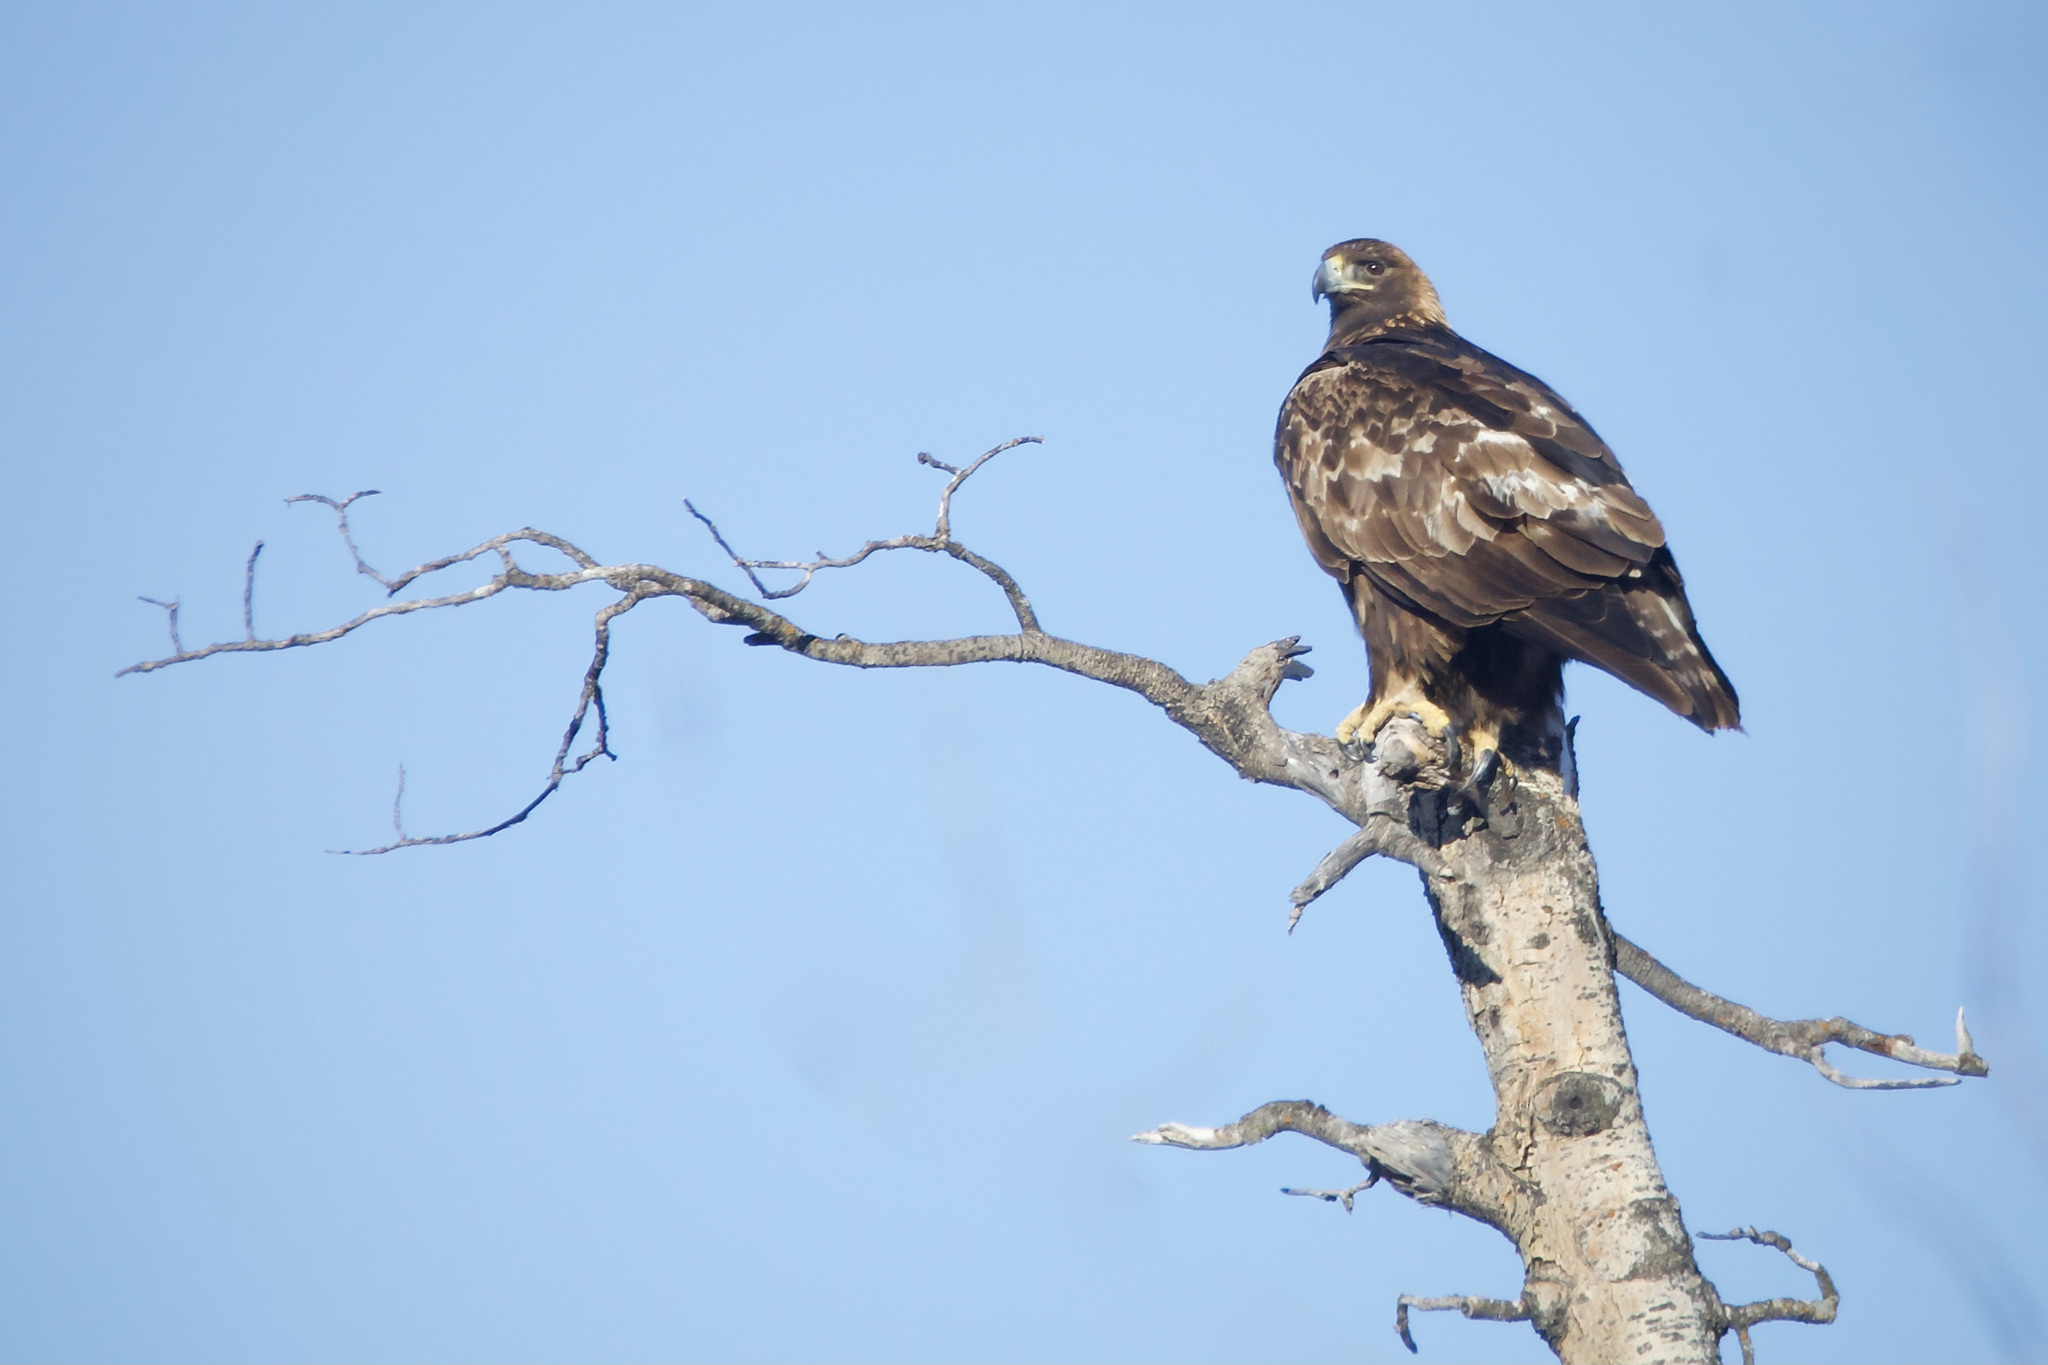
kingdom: Animalia
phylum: Chordata
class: Aves
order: Accipitriformes
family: Accipitridae
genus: Aquila
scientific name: Aquila chrysaetos
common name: Golden eagle
